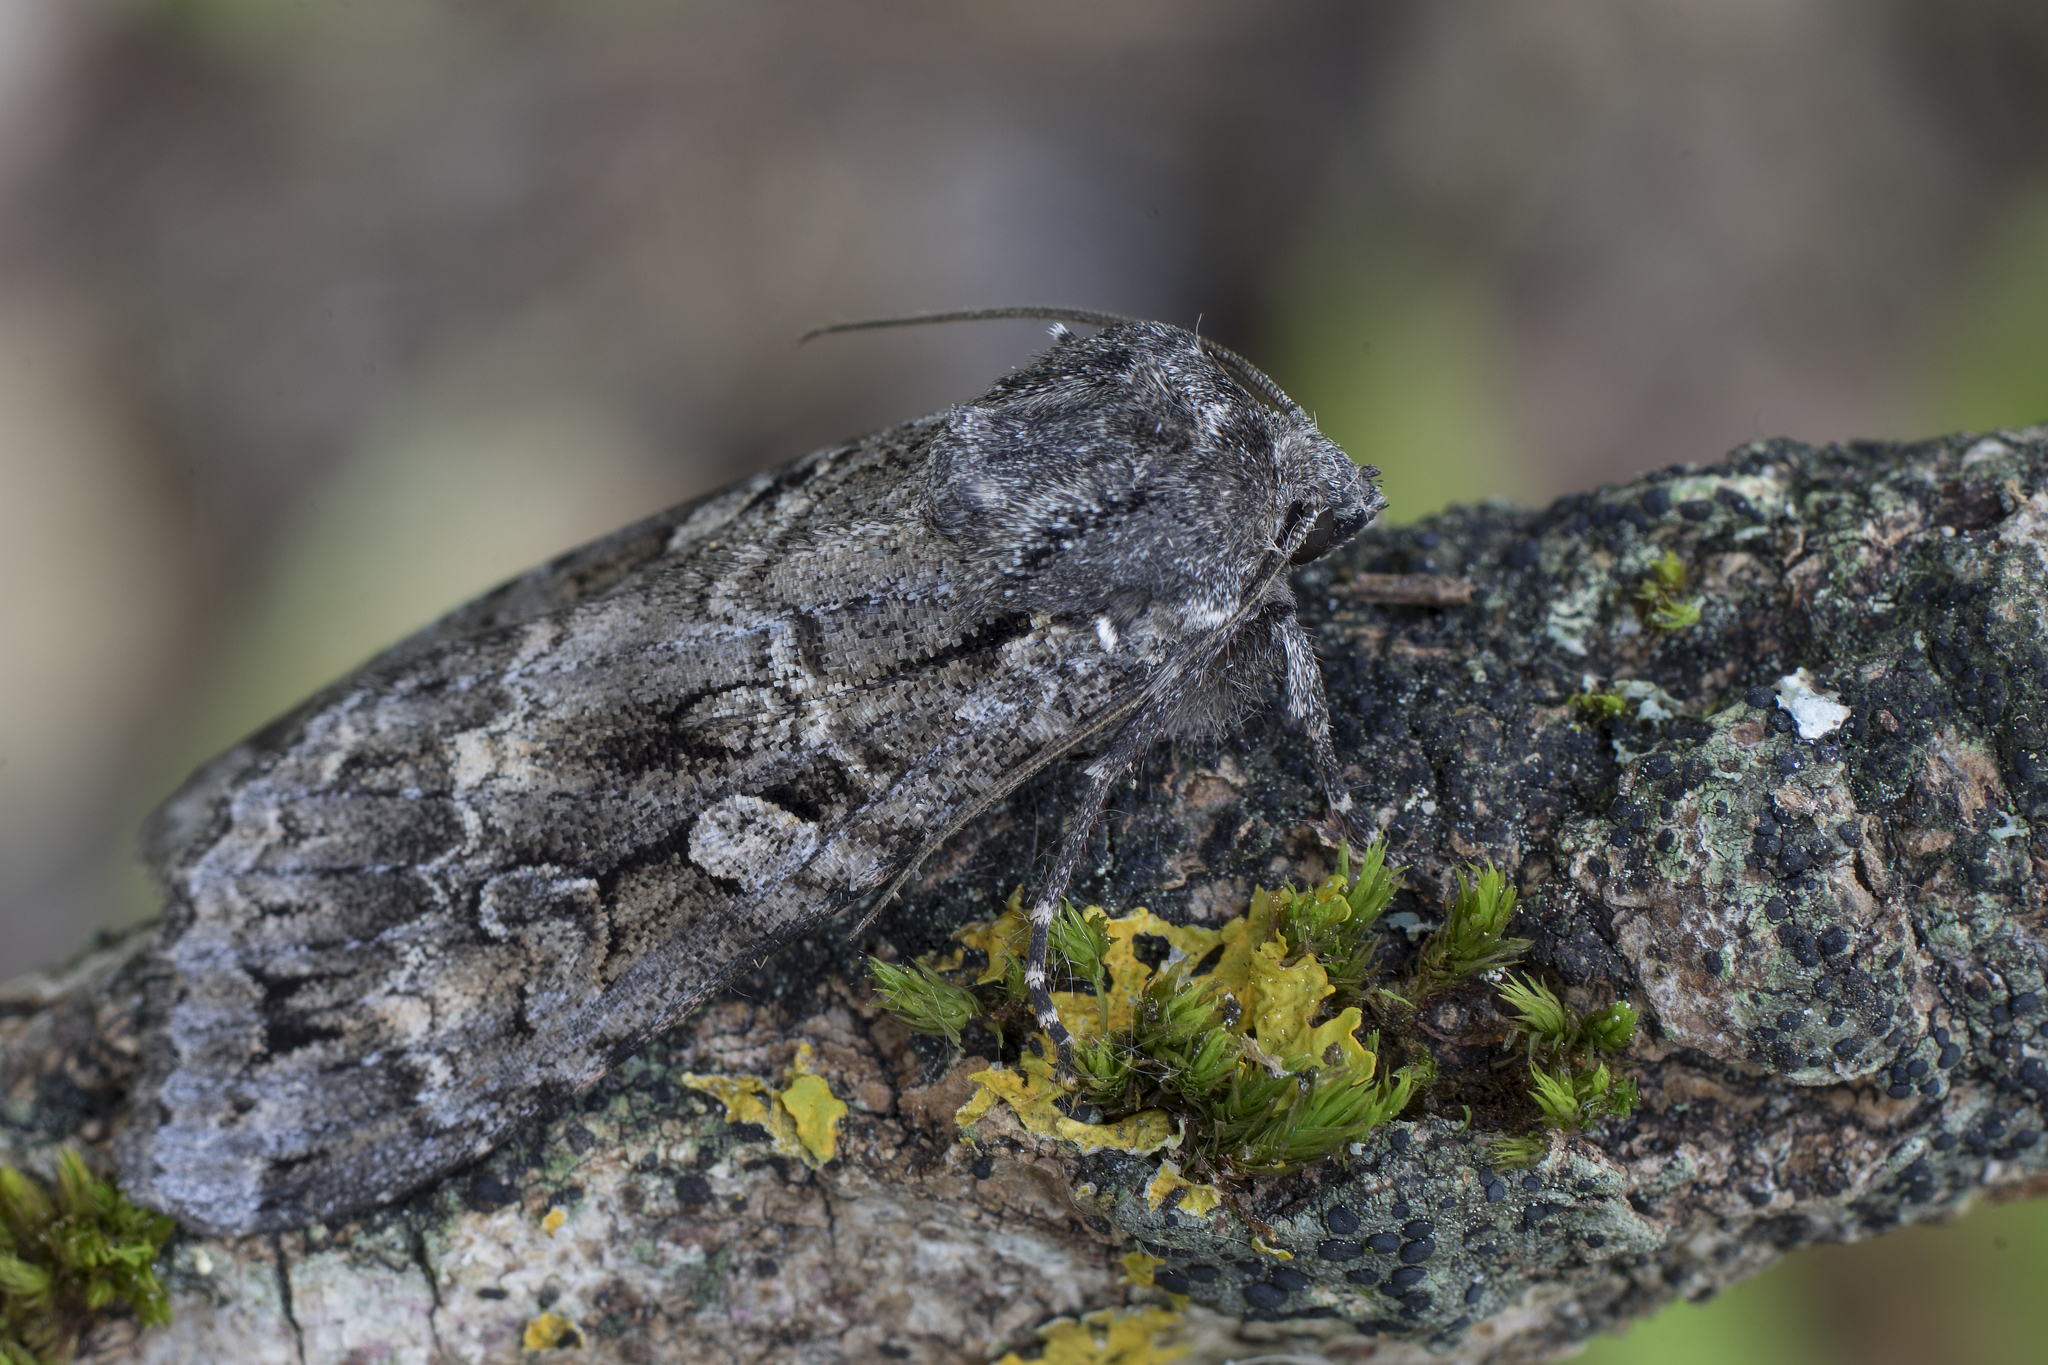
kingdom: Animalia
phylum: Arthropoda
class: Insecta
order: Lepidoptera
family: Noctuidae
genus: Eurois
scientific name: Eurois occulta
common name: Great brocade
